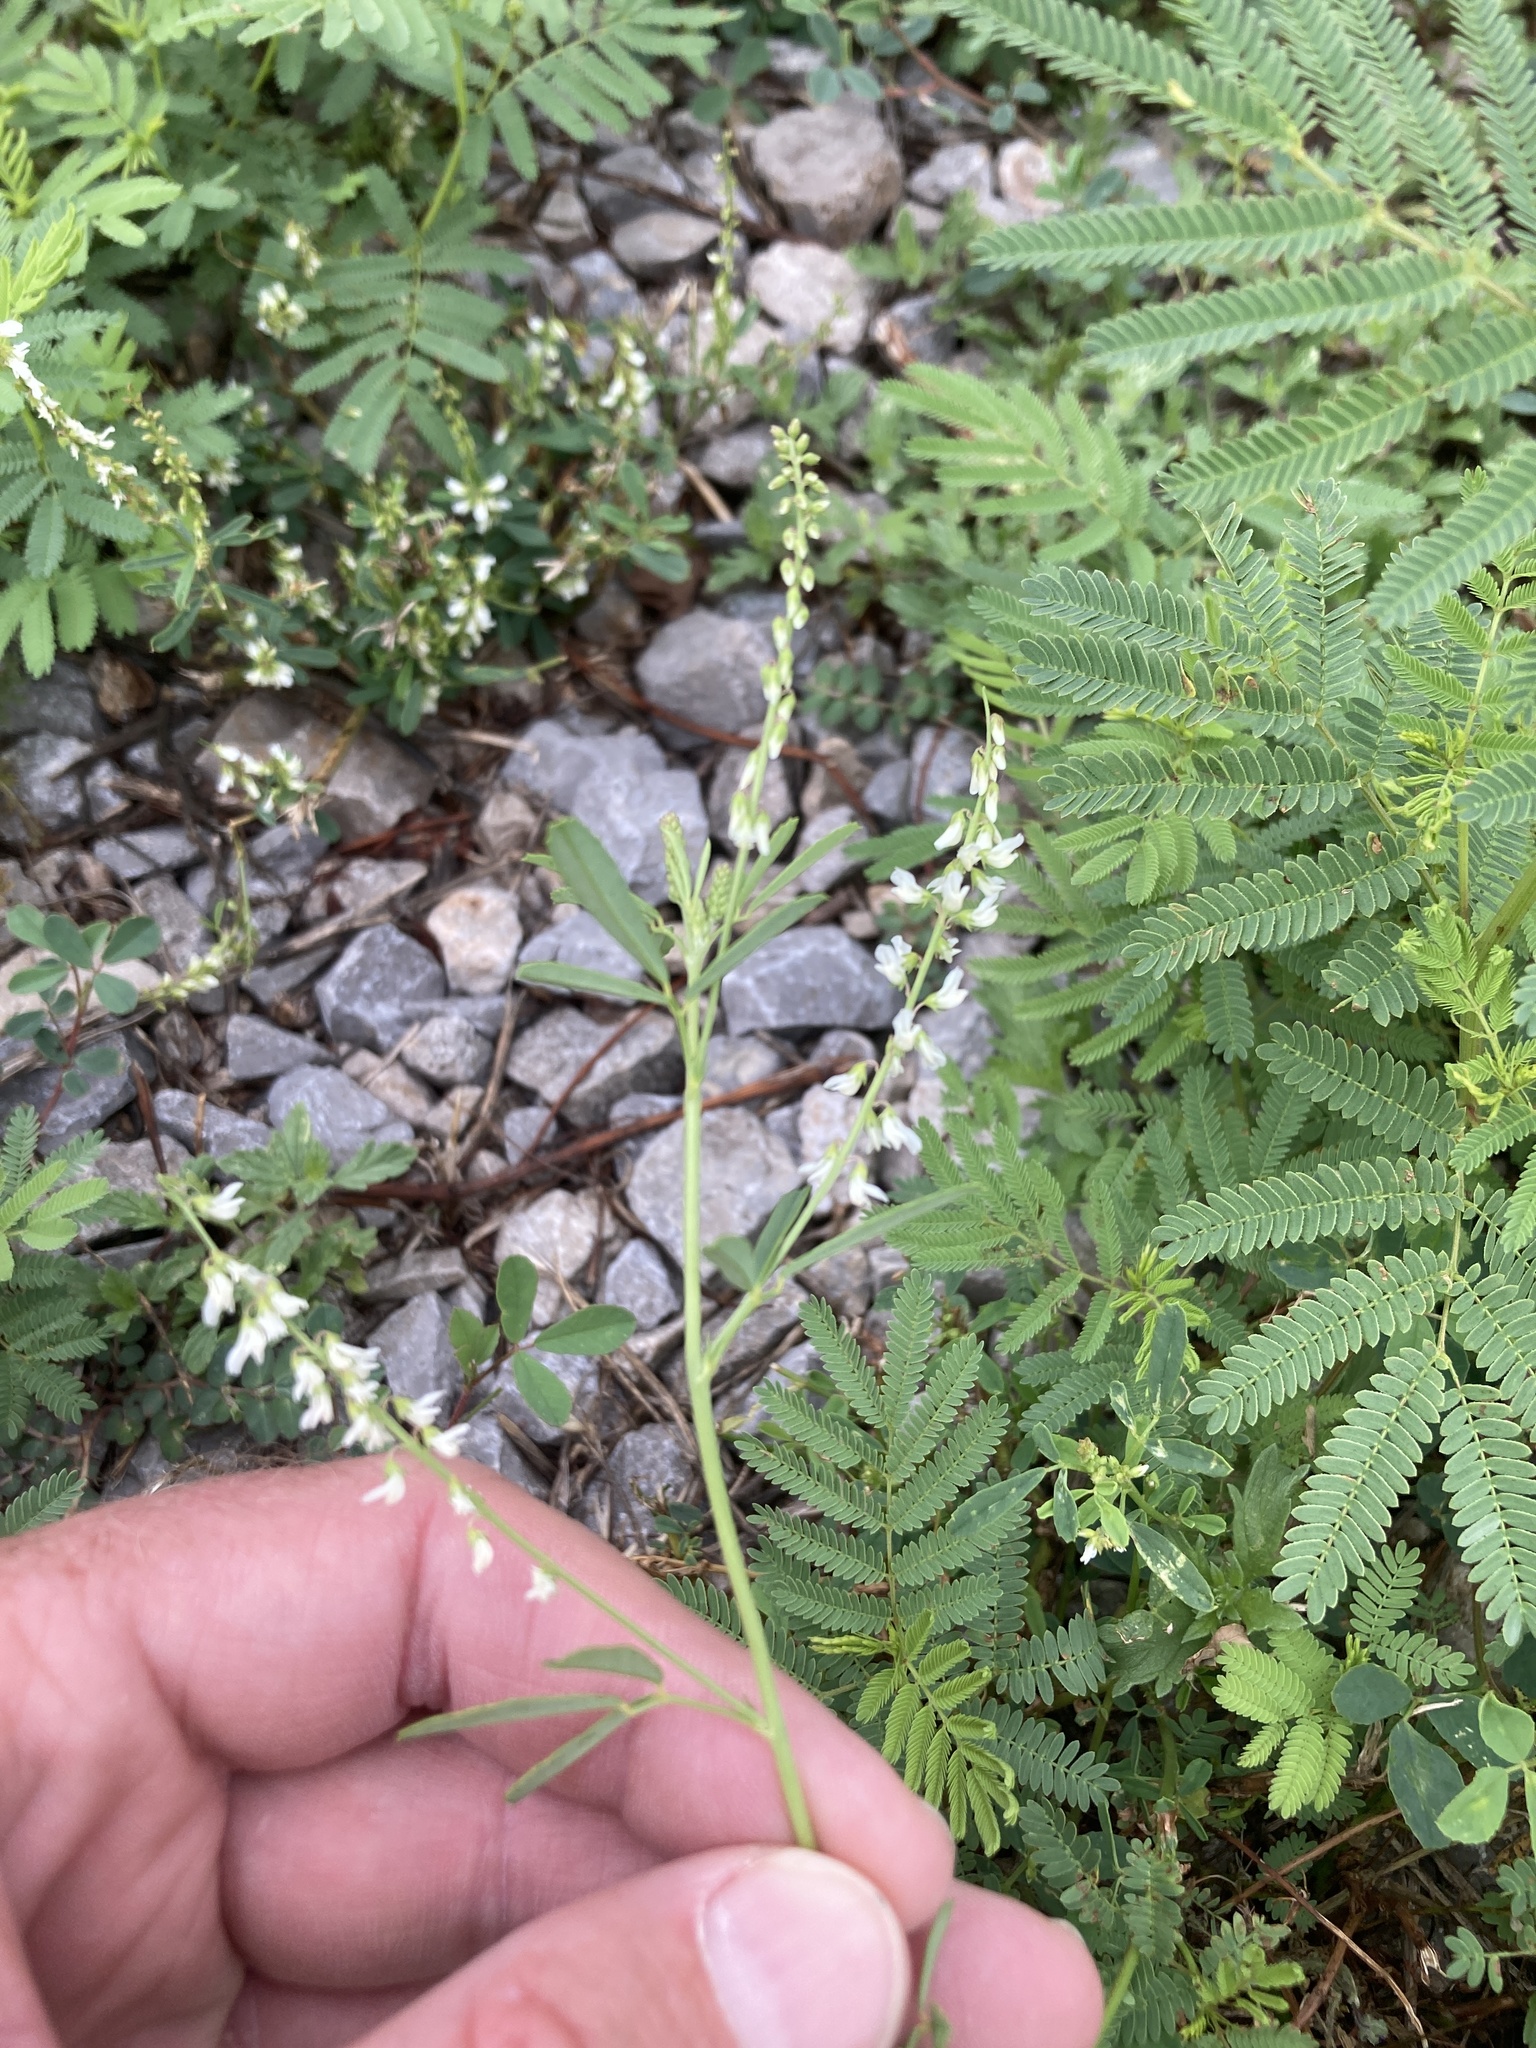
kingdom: Plantae
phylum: Tracheophyta
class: Magnoliopsida
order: Fabales
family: Fabaceae
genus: Melilotus
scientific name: Melilotus albus
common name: White melilot
